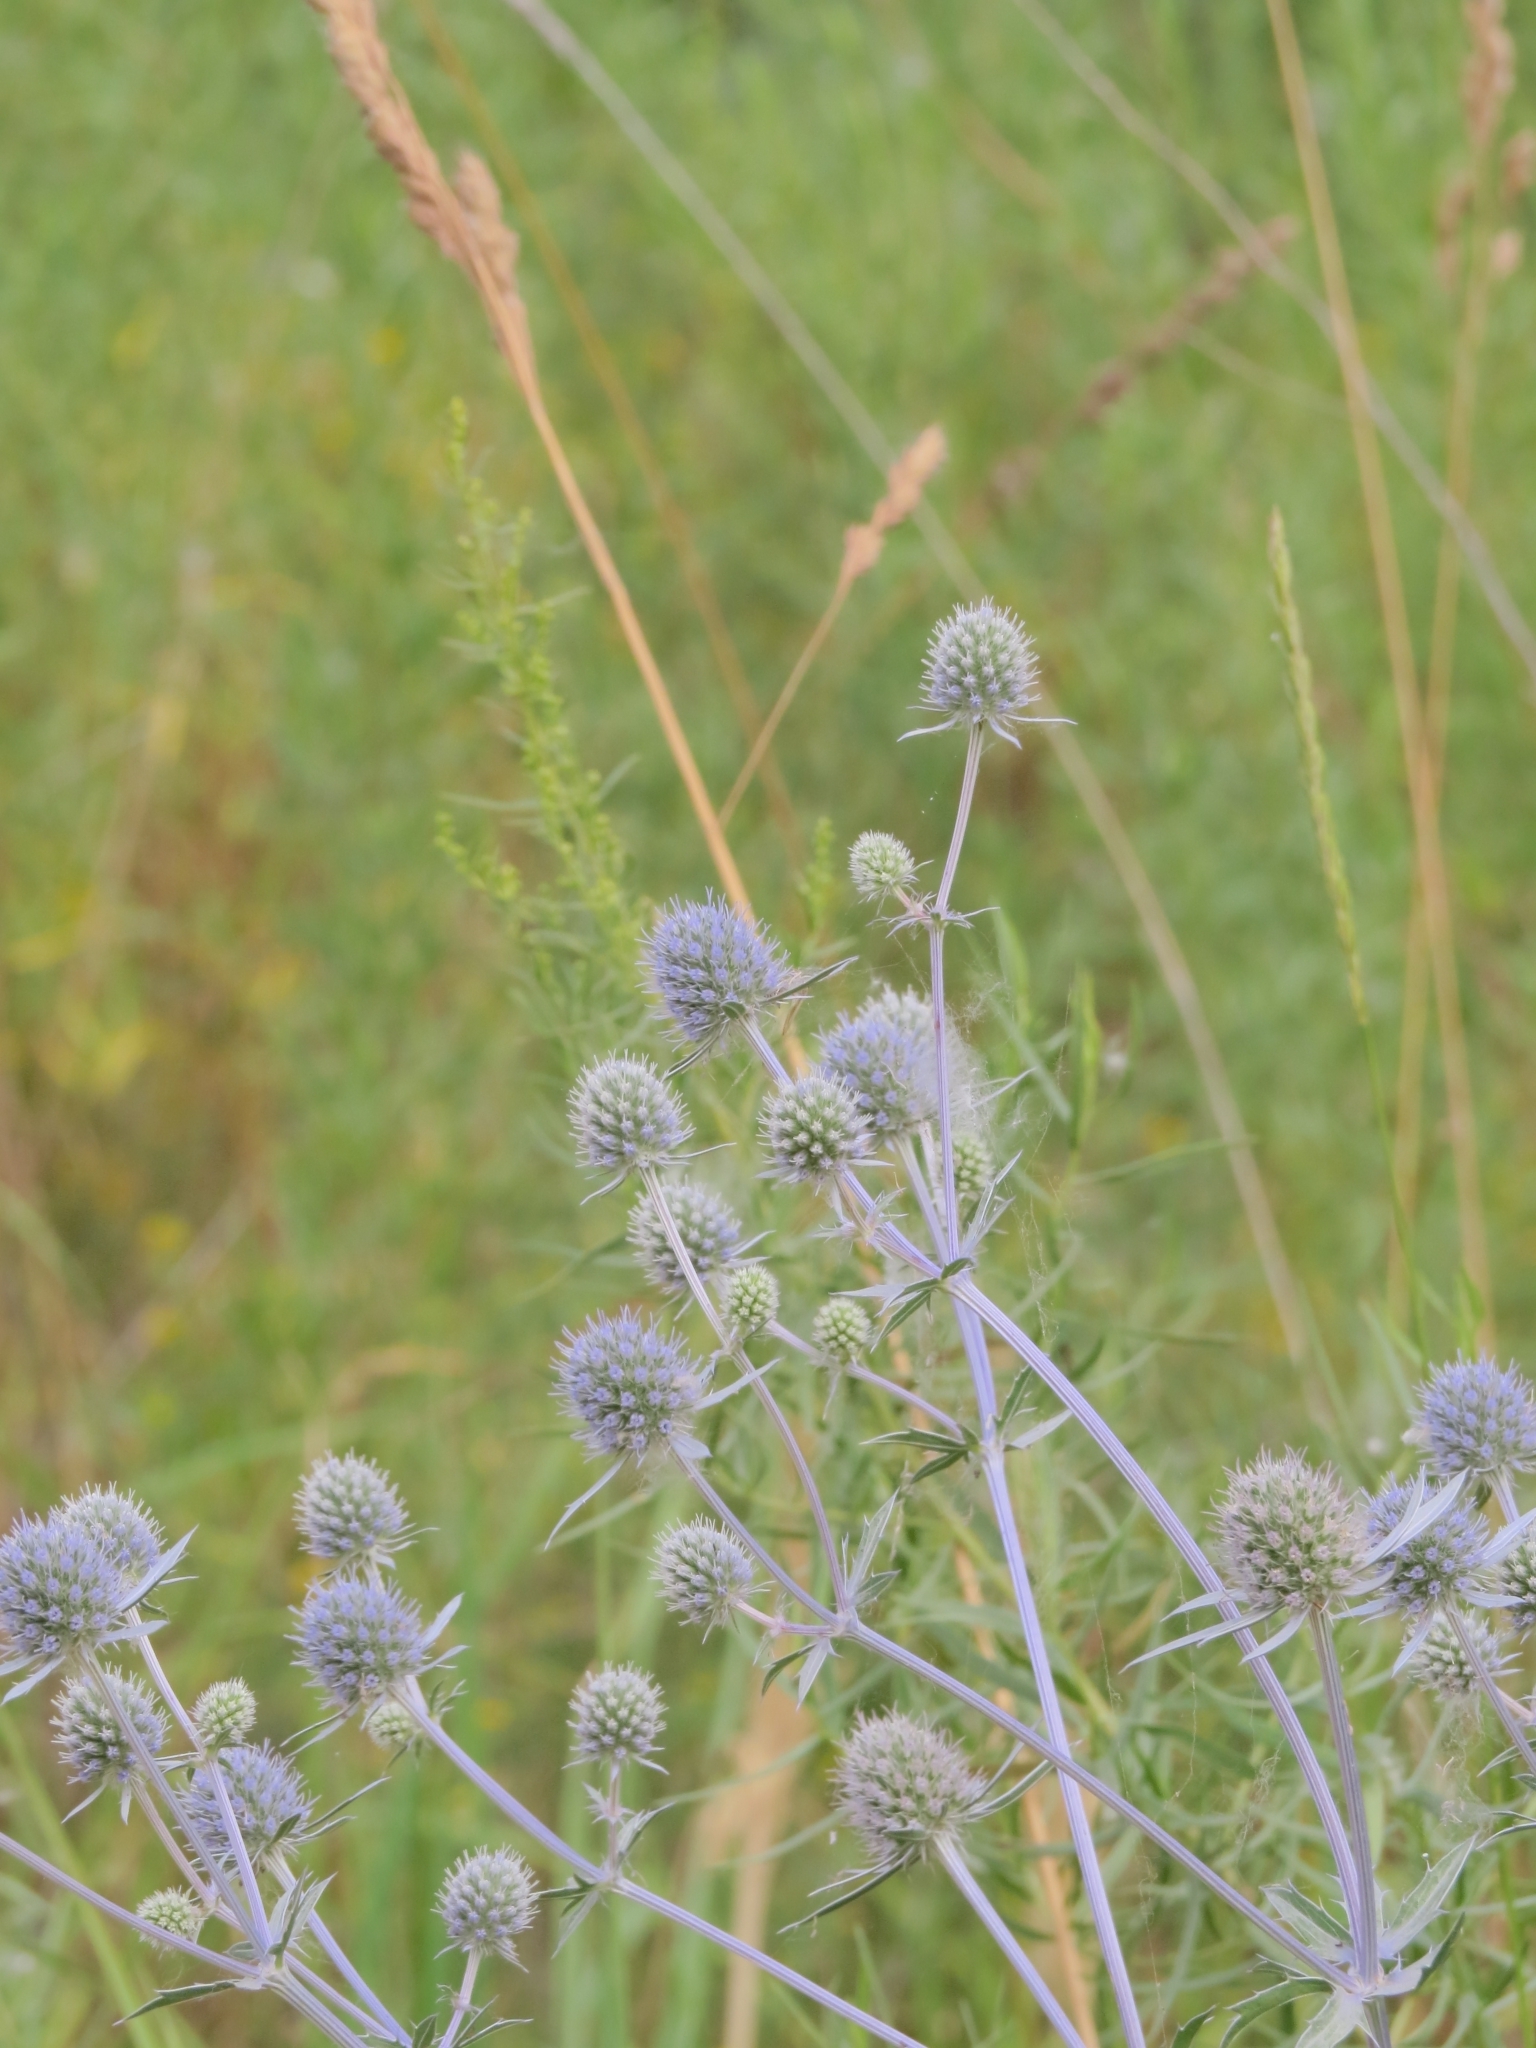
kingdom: Plantae
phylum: Tracheophyta
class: Magnoliopsida
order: Apiales
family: Apiaceae
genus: Eryngium
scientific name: Eryngium planum
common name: Blue eryngo
